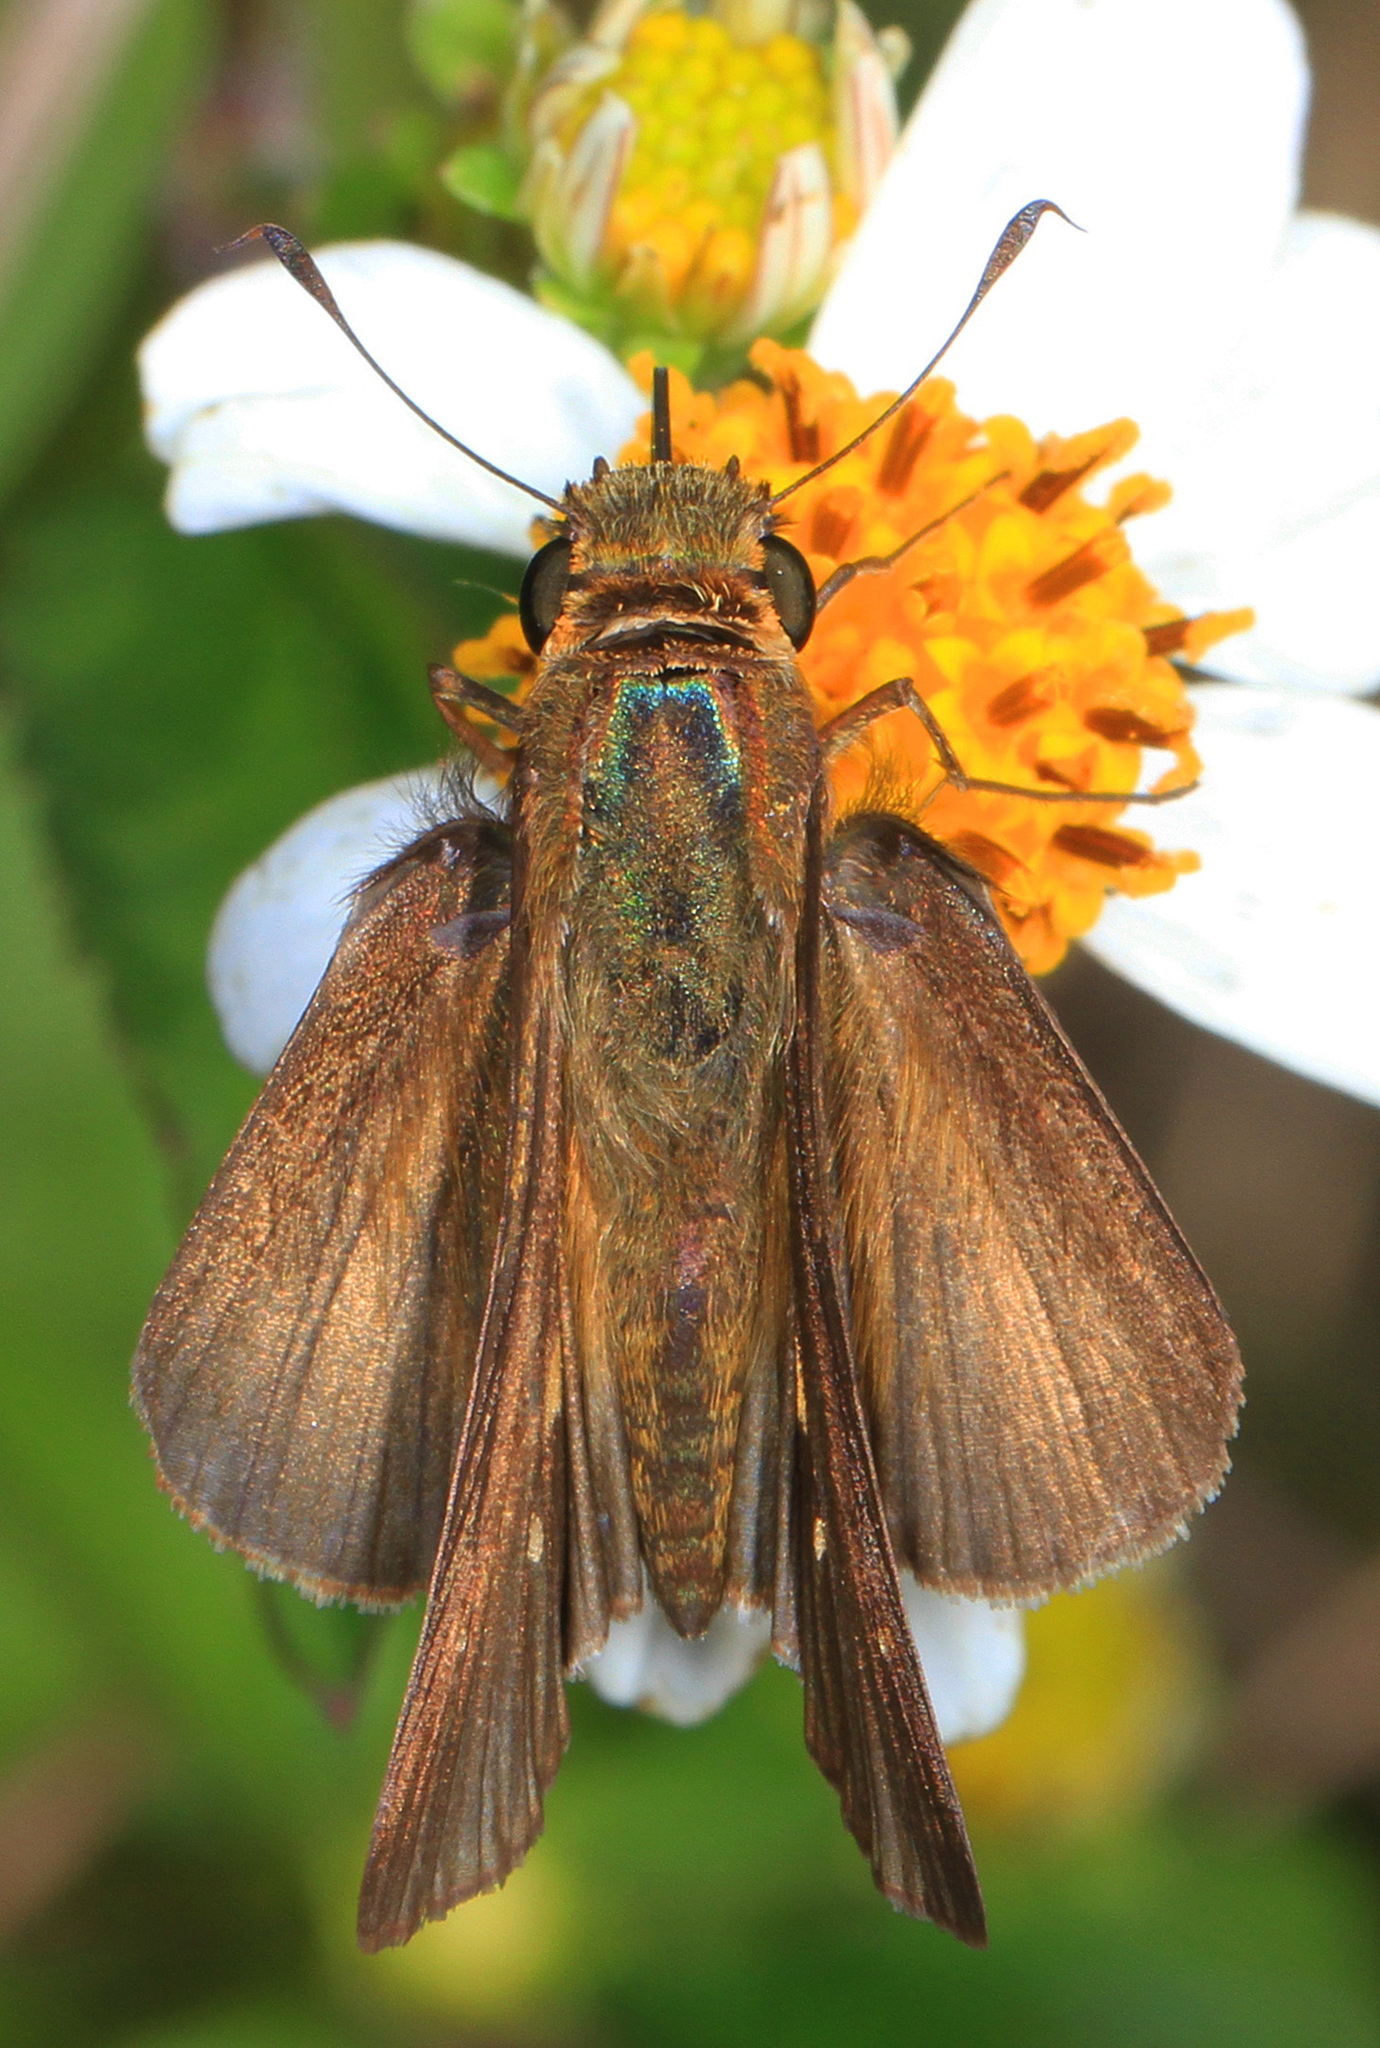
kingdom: Animalia
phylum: Arthropoda
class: Insecta
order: Lepidoptera
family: Hesperiidae
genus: Panoquina
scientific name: Panoquina ocola
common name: Ocola skipper
